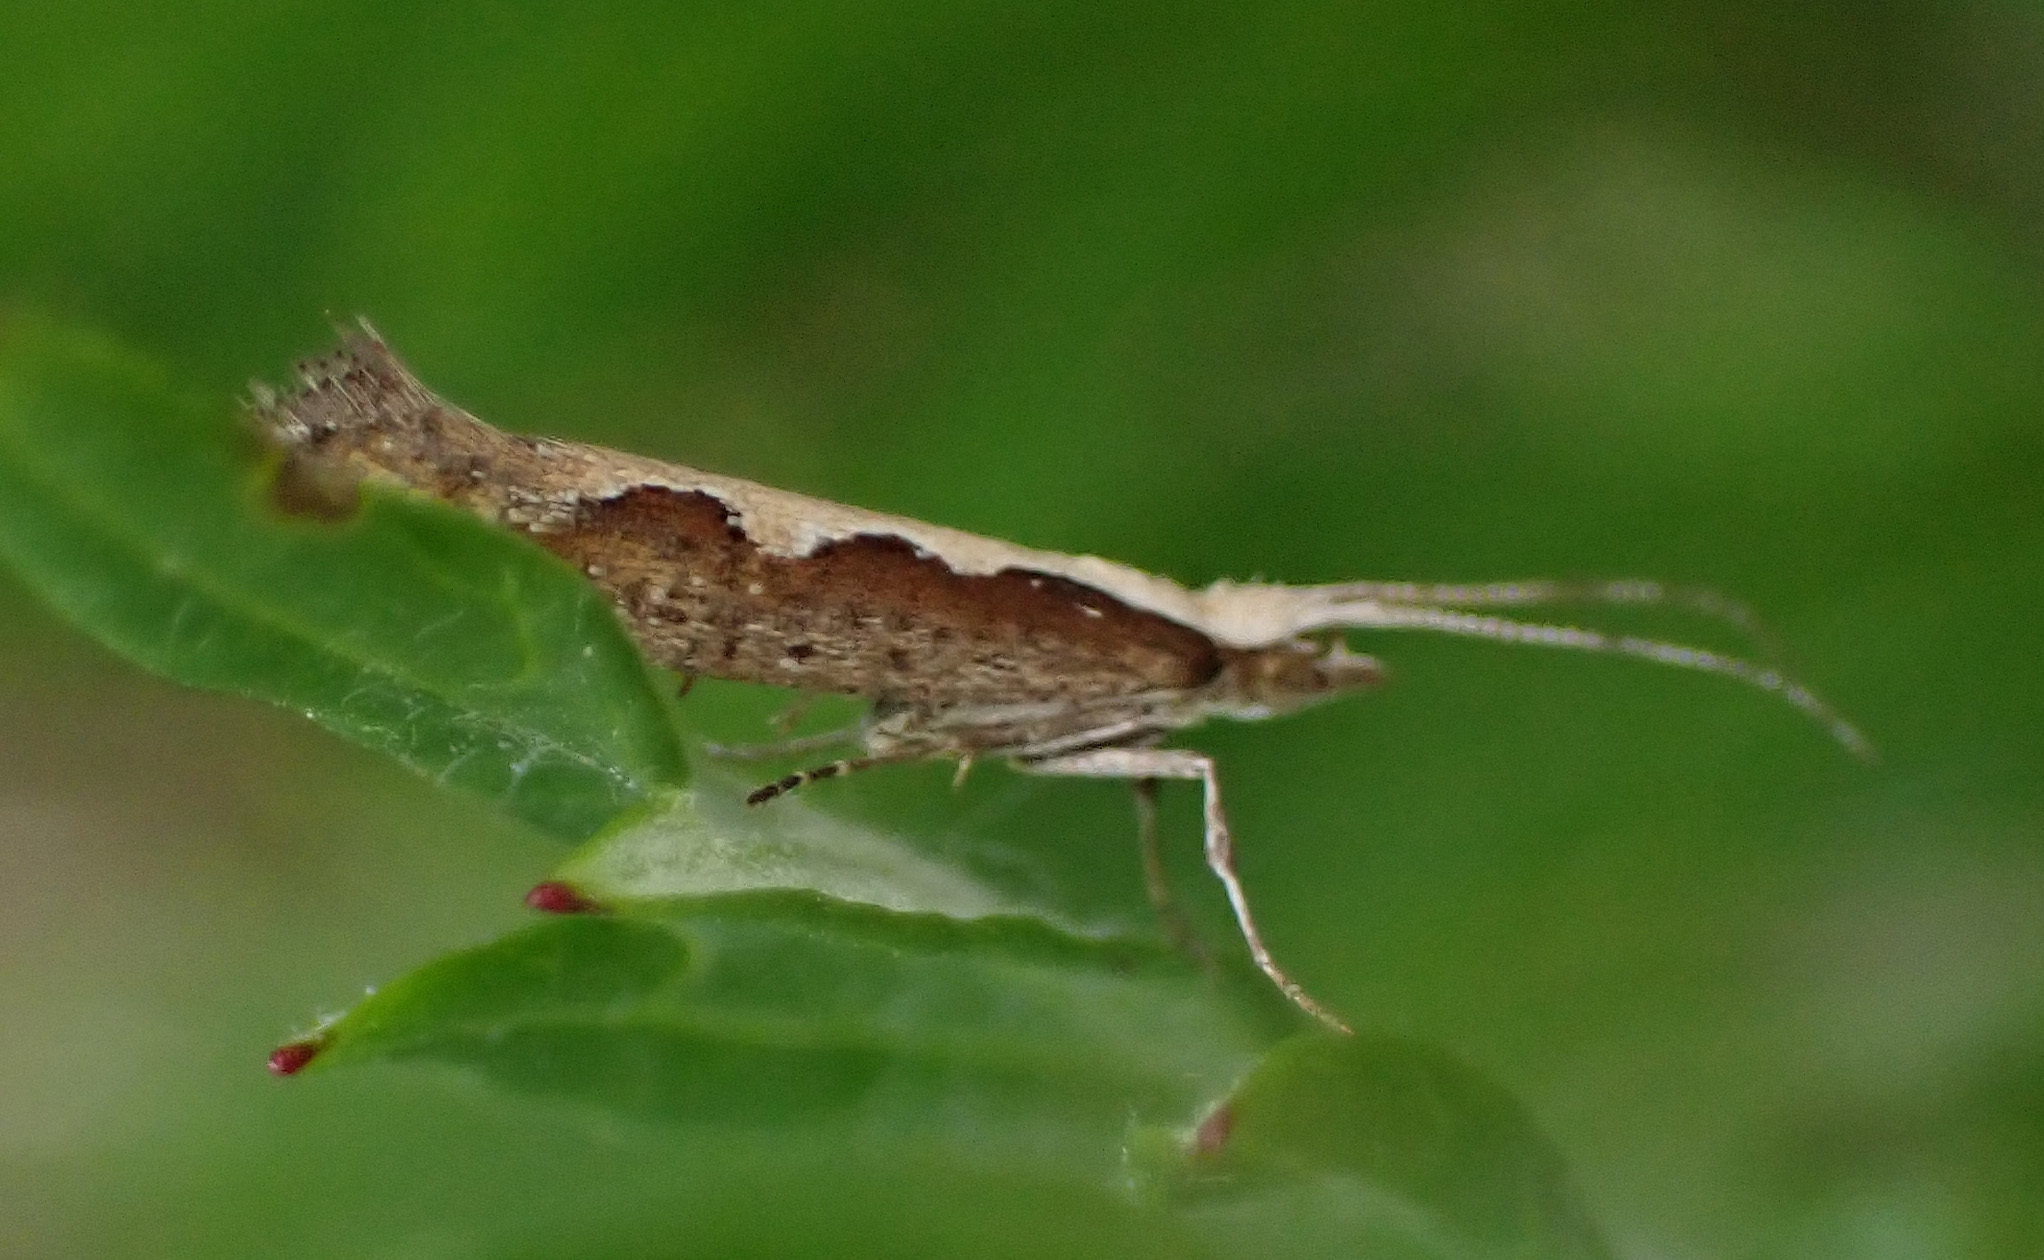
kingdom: Animalia
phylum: Arthropoda
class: Insecta
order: Lepidoptera
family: Plutellidae
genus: Plutella
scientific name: Plutella xylostella
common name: Diamond-back moth
